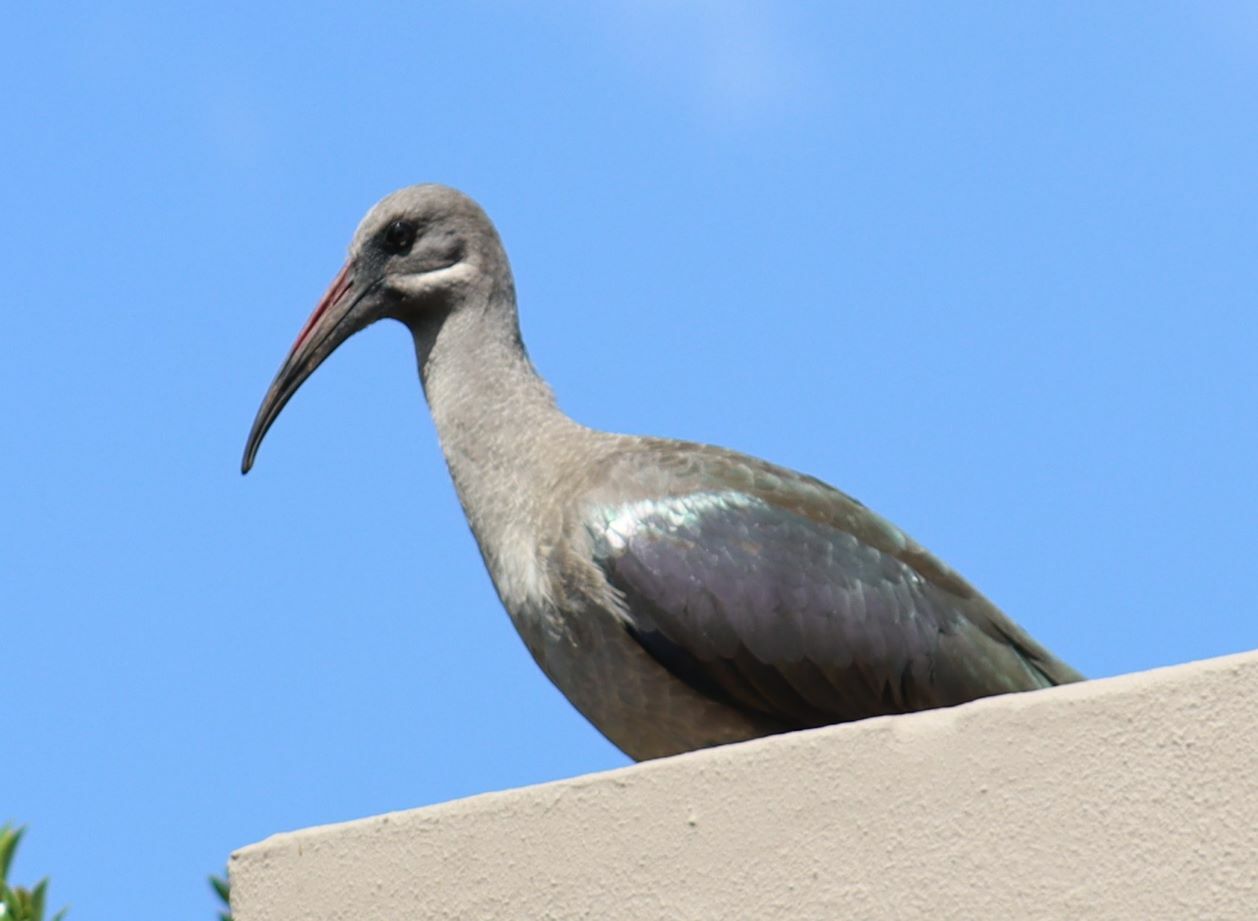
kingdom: Animalia
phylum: Chordata
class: Aves
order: Pelecaniformes
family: Threskiornithidae
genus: Bostrychia
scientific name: Bostrychia hagedash
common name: Hadada ibis
